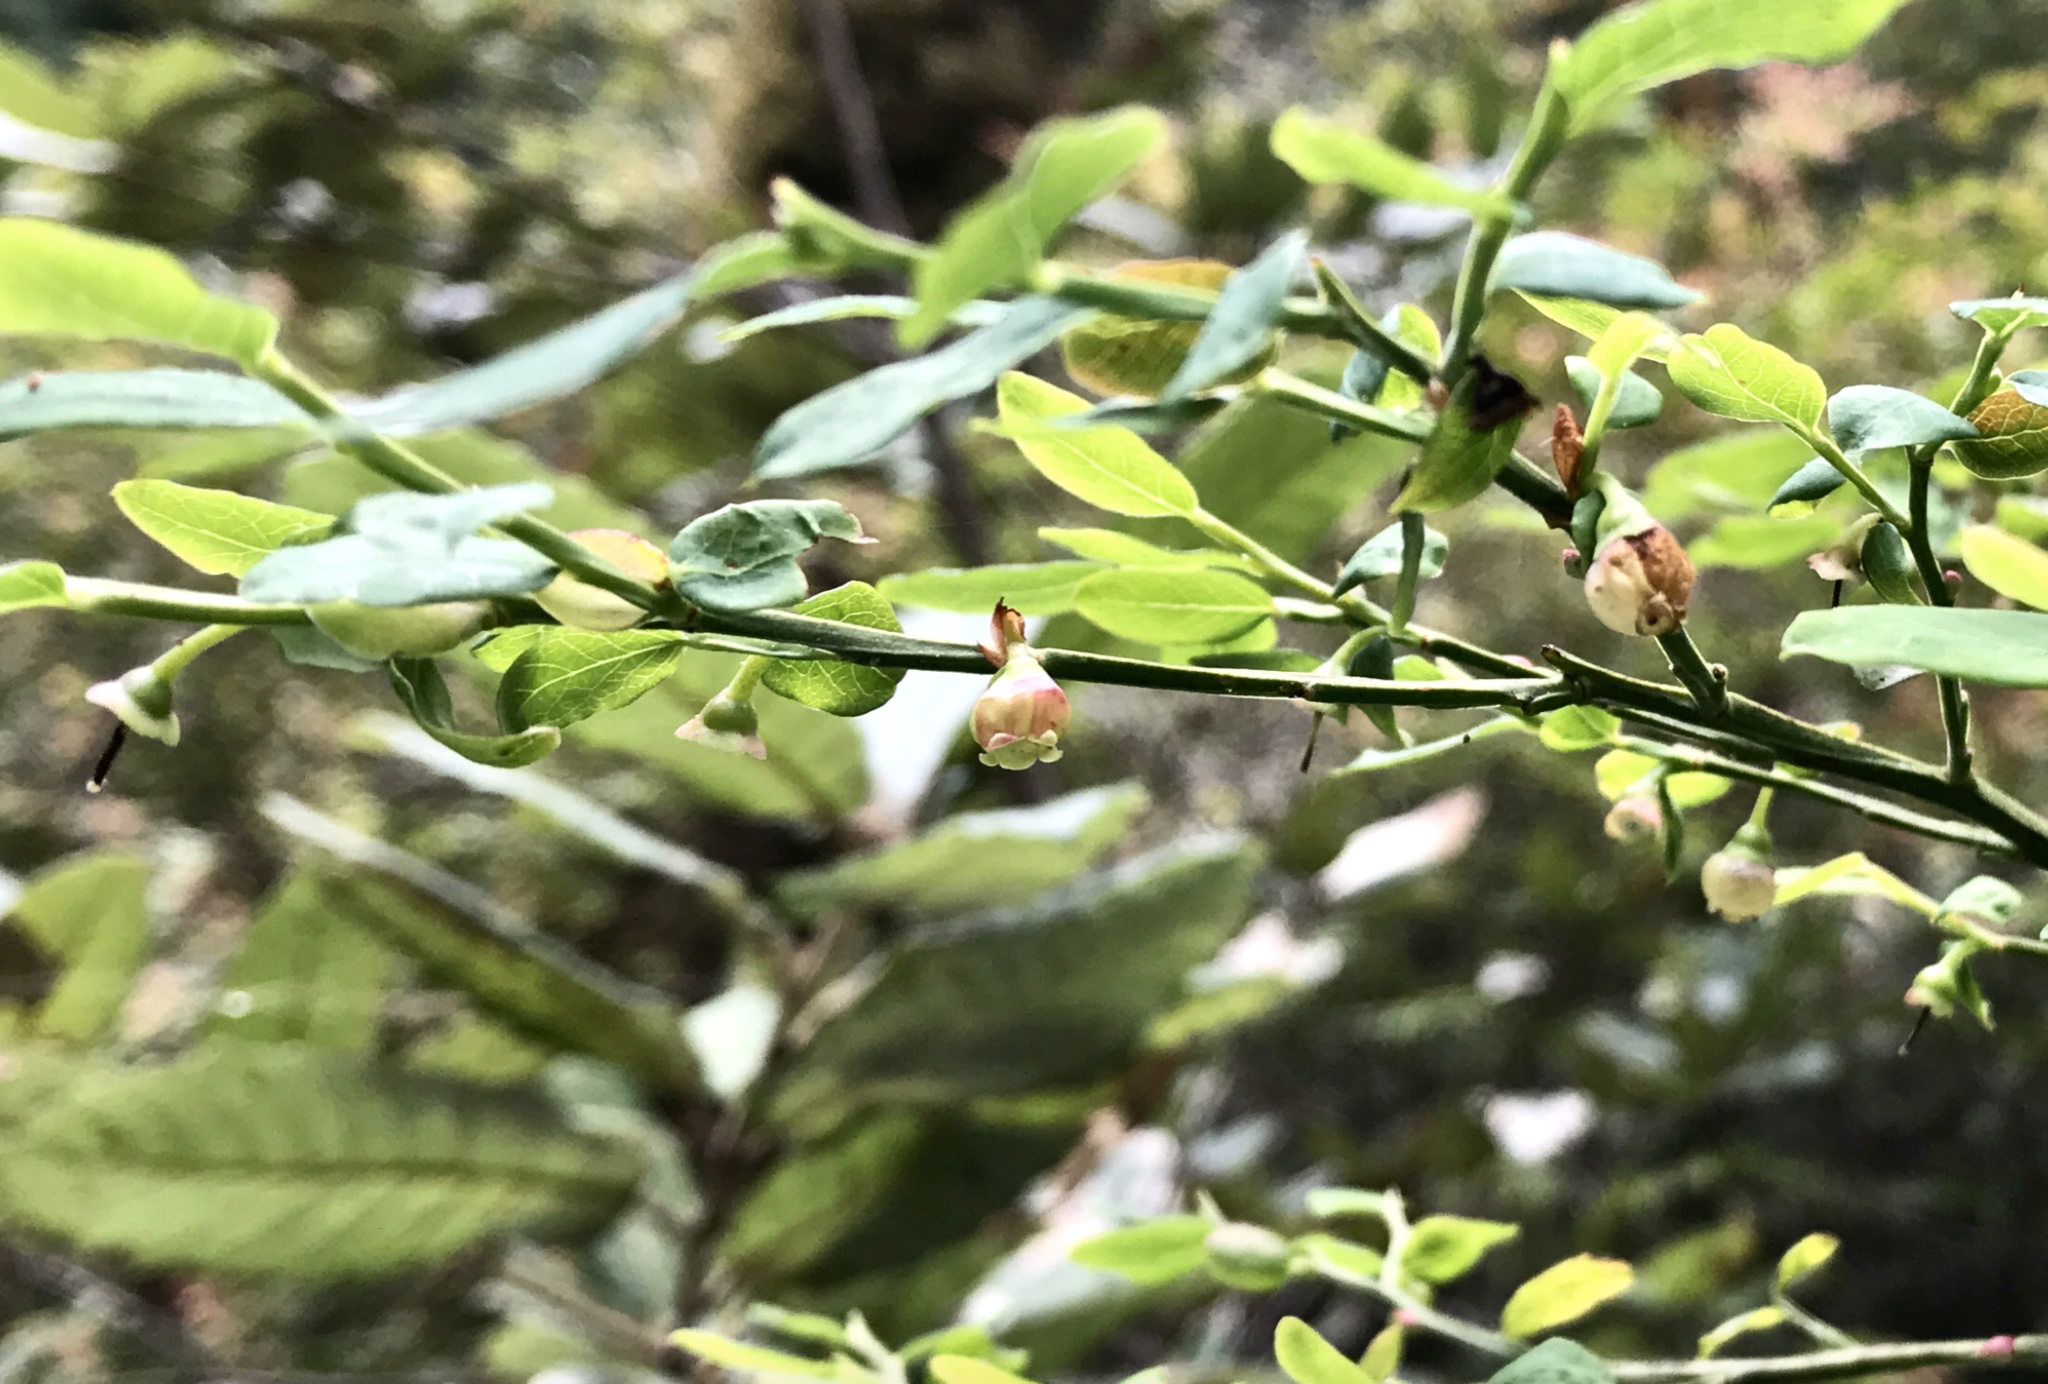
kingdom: Plantae
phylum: Tracheophyta
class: Magnoliopsida
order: Ericales
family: Ericaceae
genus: Vaccinium
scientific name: Vaccinium parvifolium
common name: Red-huckleberry
